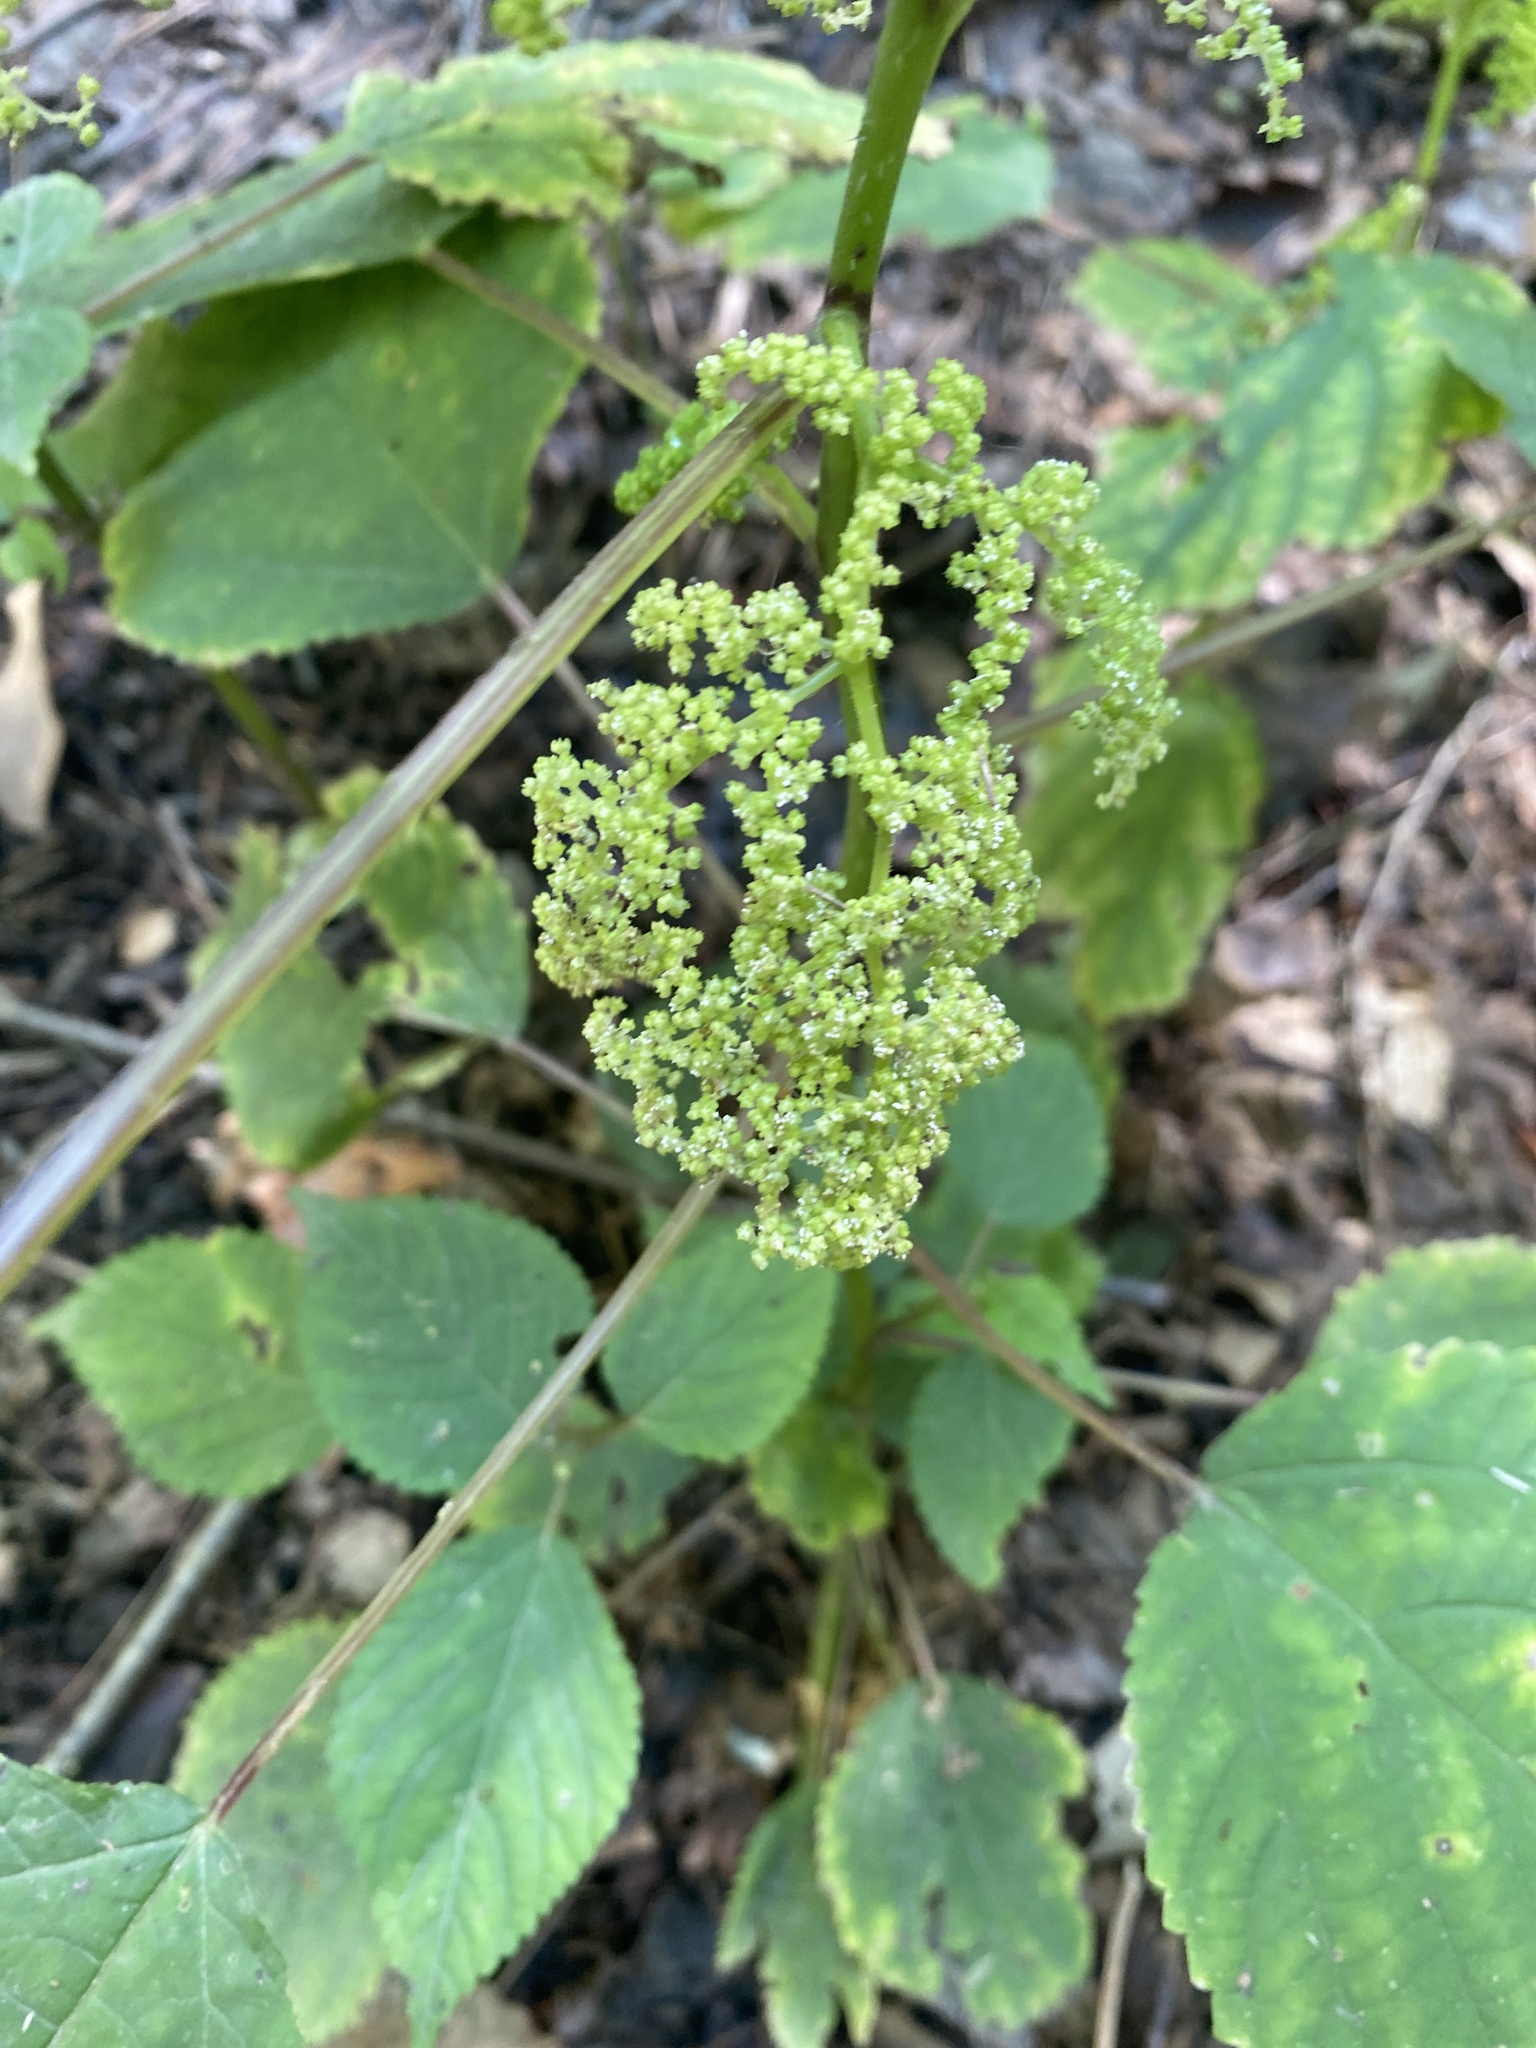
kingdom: Plantae
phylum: Tracheophyta
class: Magnoliopsida
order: Rosales
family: Urticaceae
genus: Laportea
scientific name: Laportea canadensis
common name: Canada nettle
